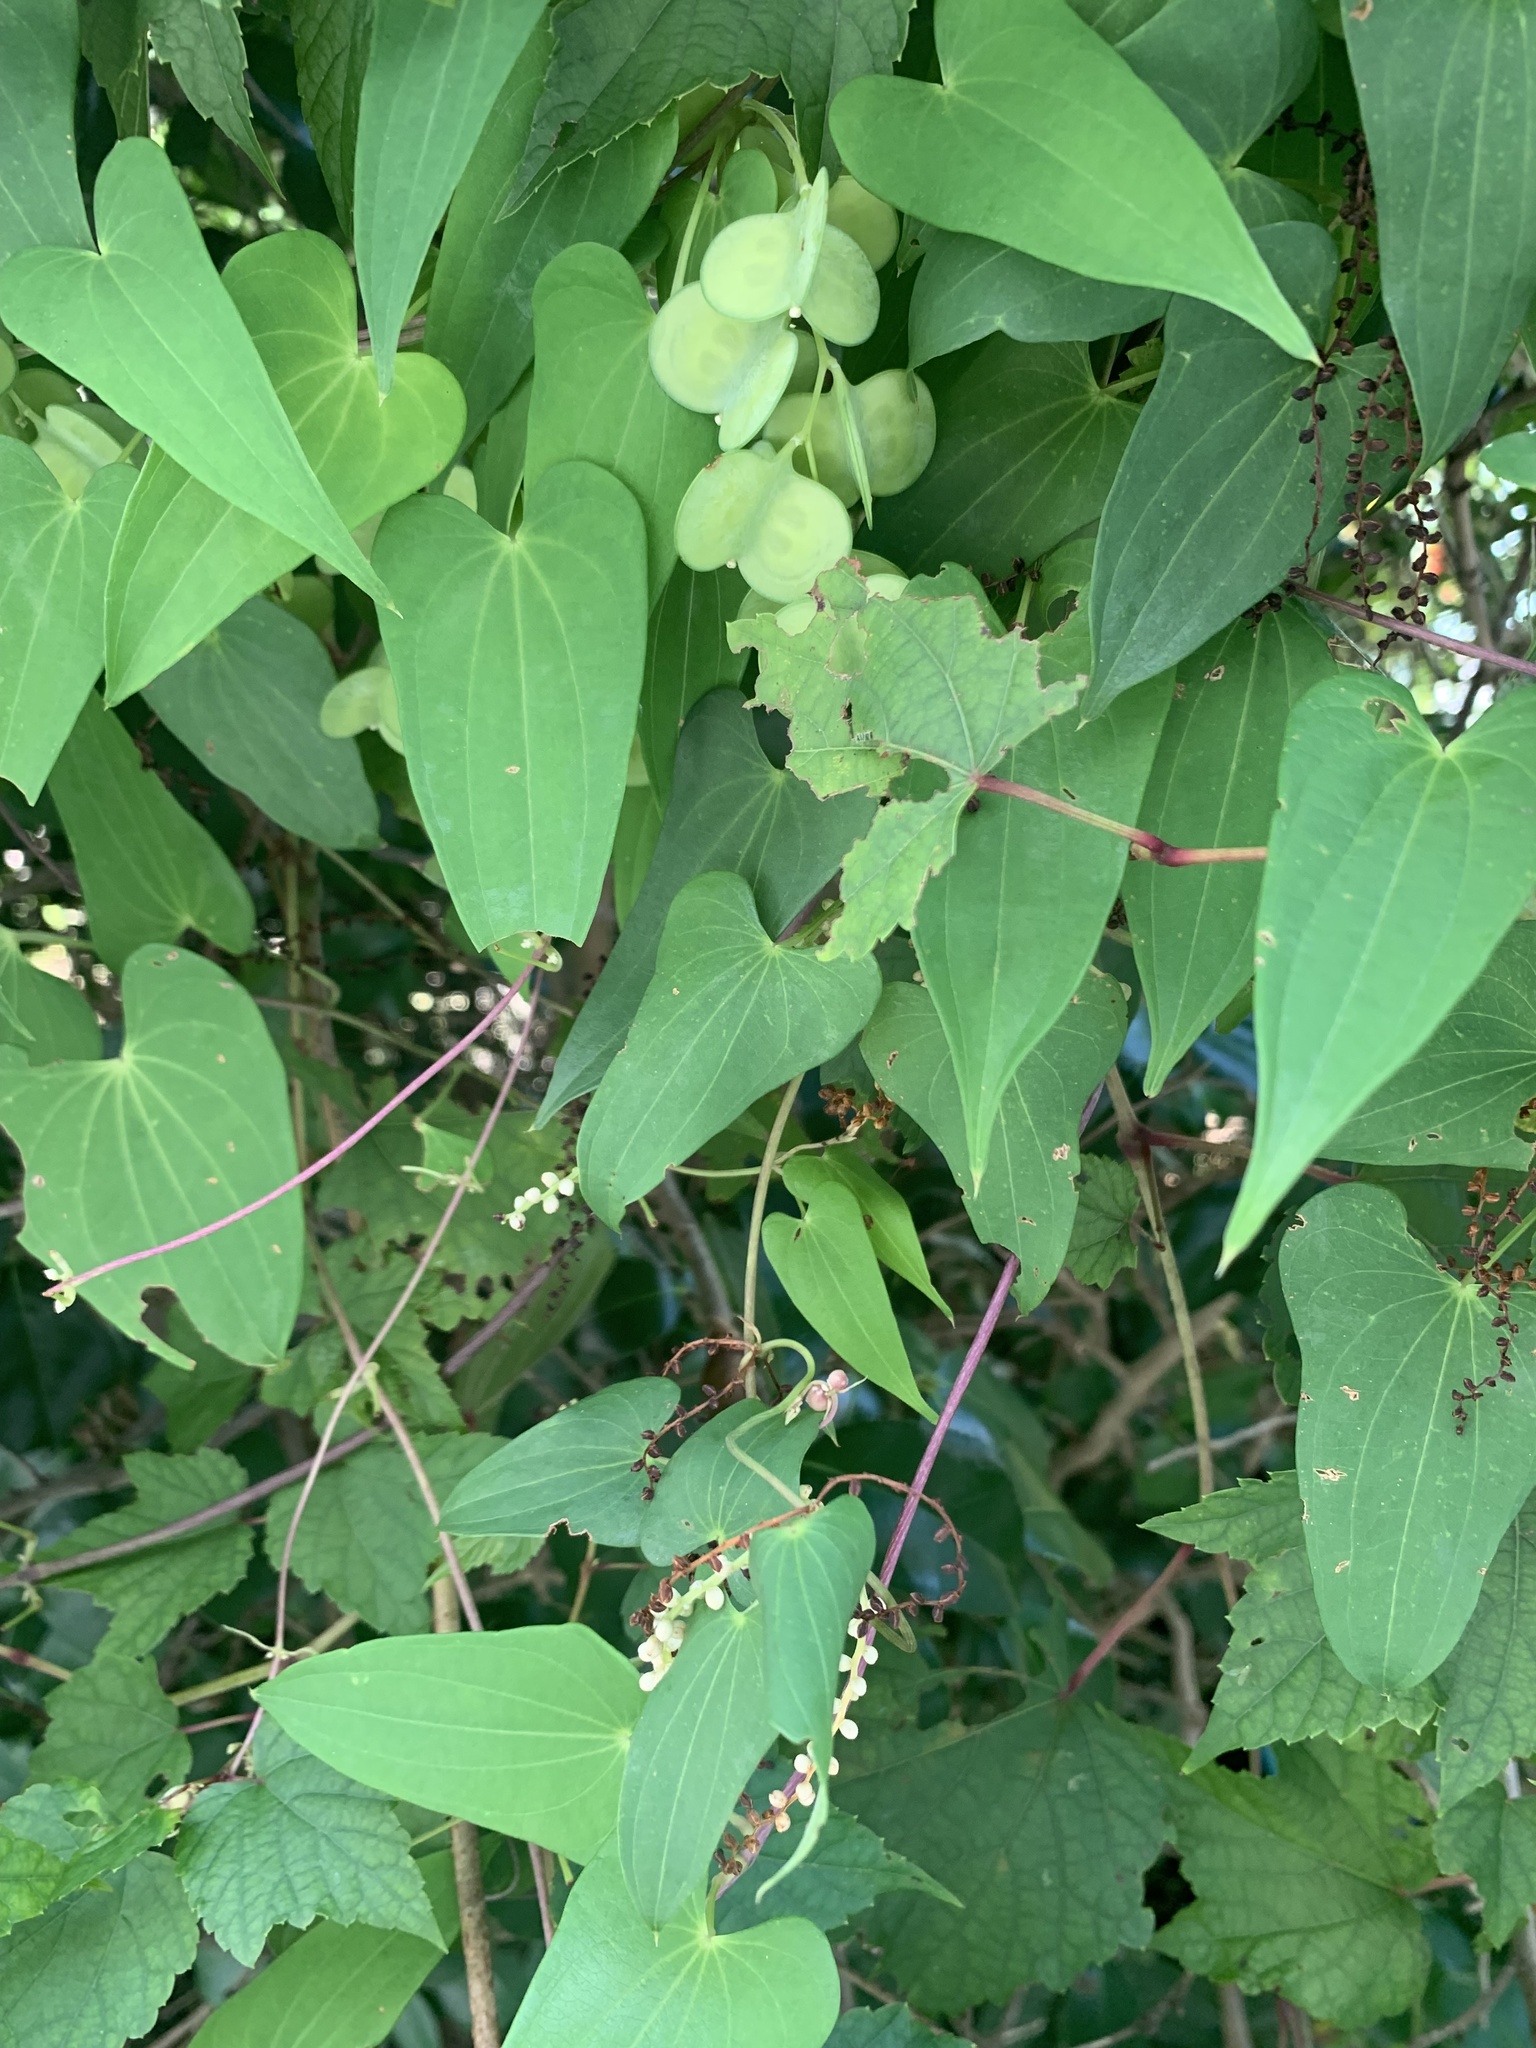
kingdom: Plantae
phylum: Tracheophyta
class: Liliopsida
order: Dioscoreales
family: Dioscoreaceae
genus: Dioscorea
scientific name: Dioscorea japonica
